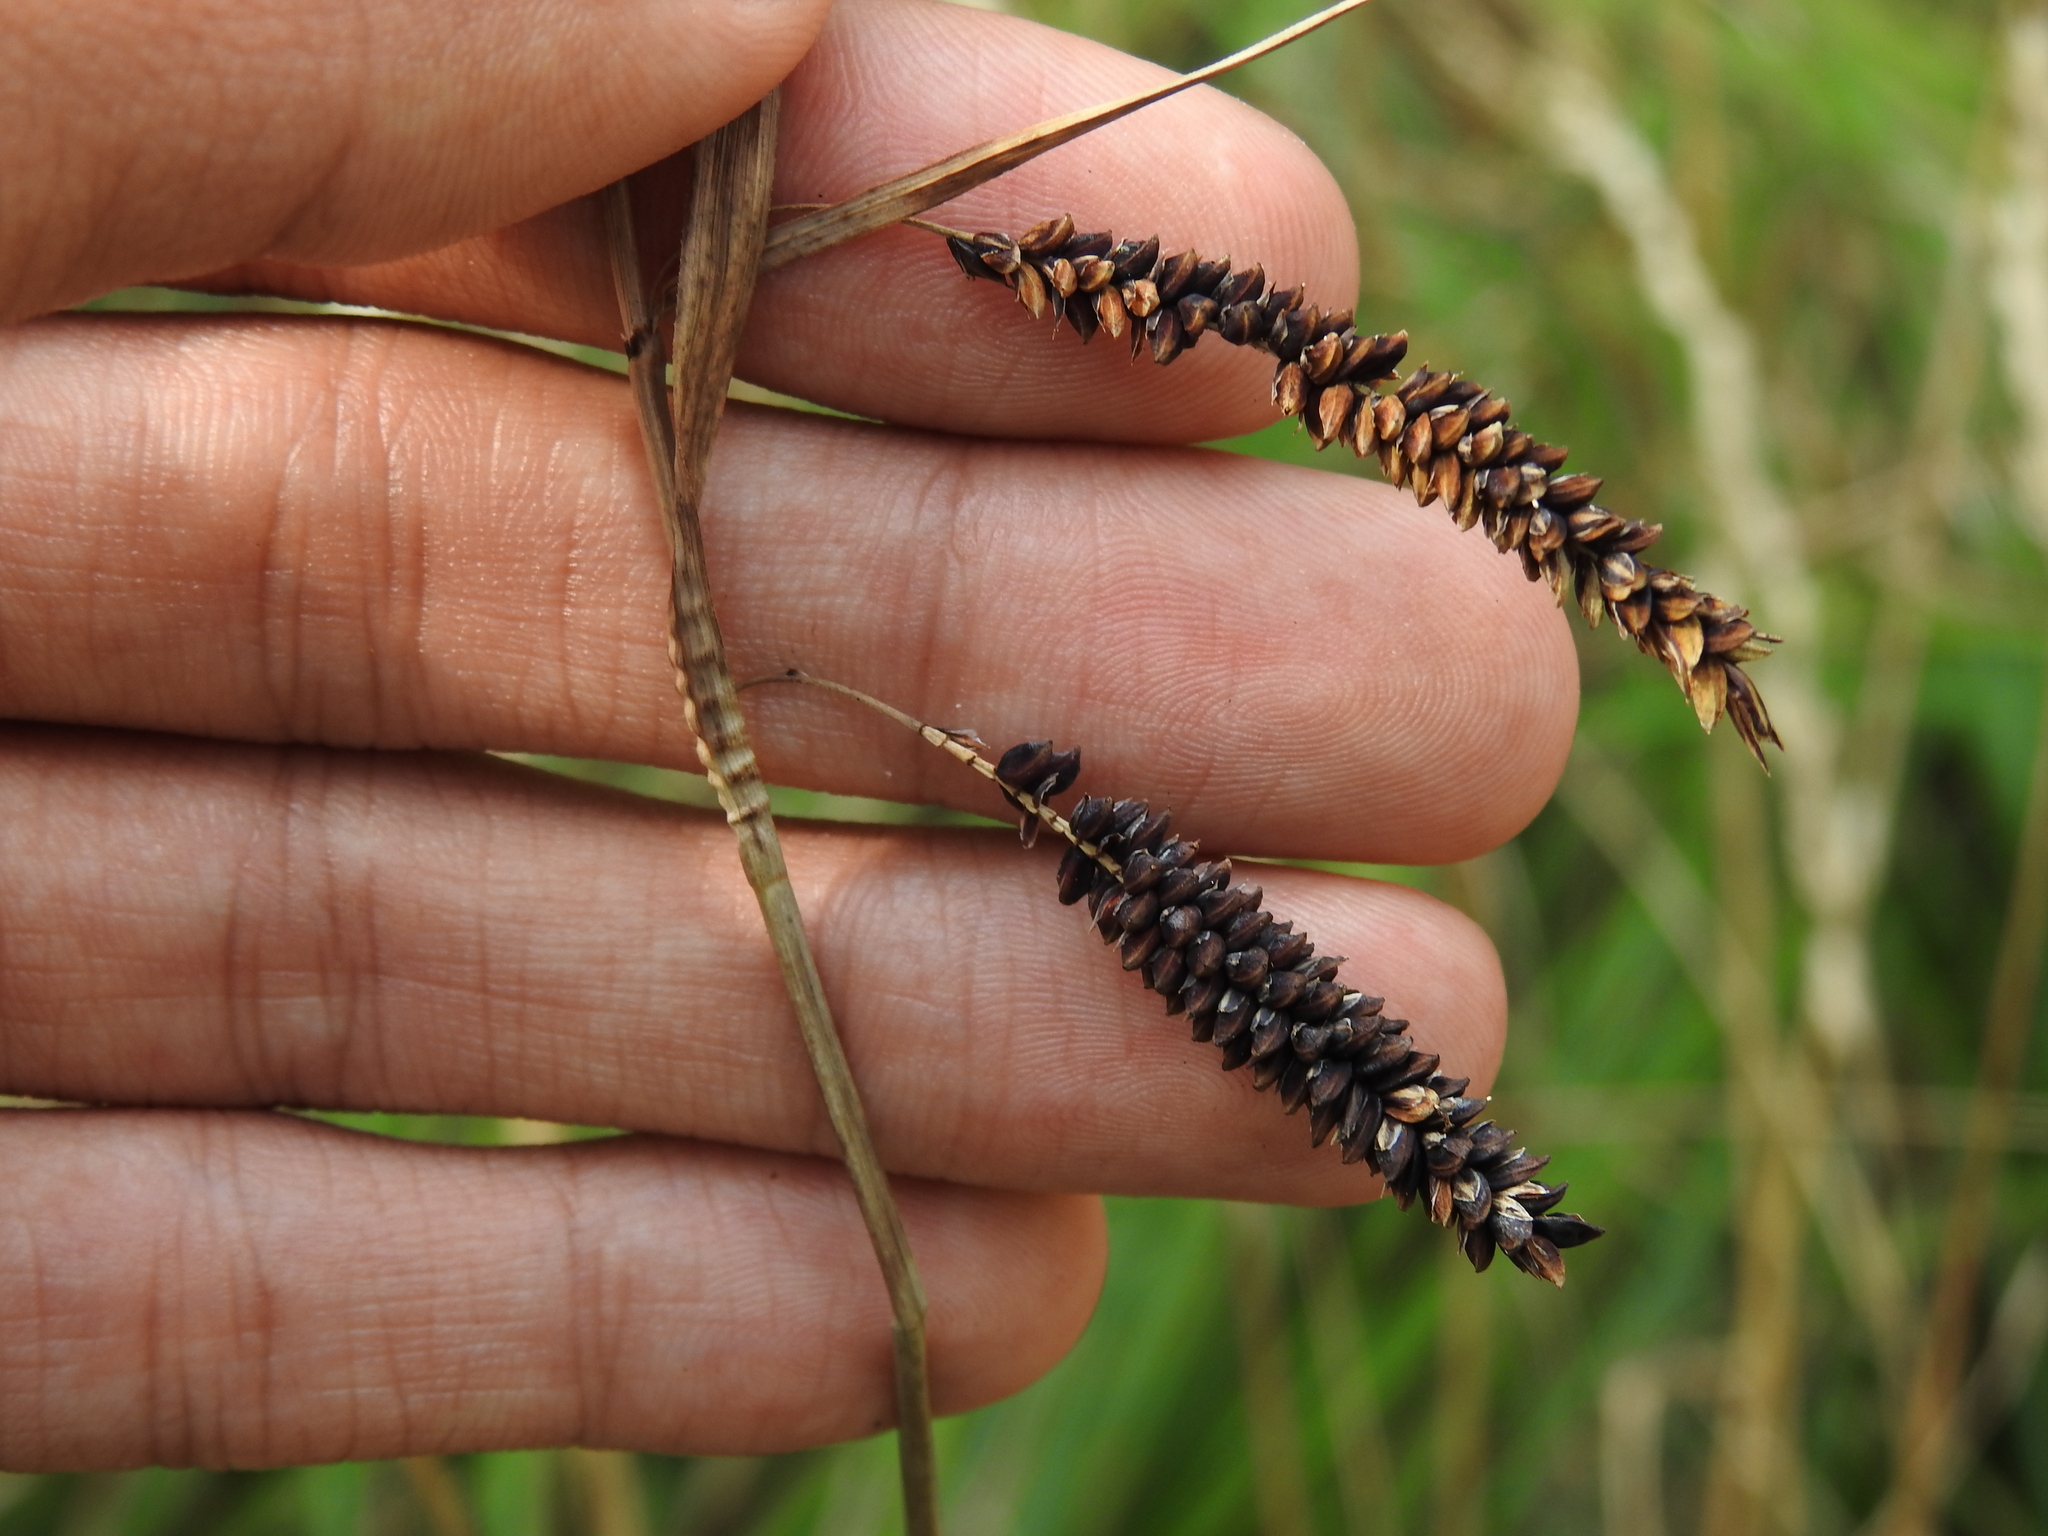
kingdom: Plantae
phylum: Tracheophyta
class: Liliopsida
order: Poales
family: Cyperaceae
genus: Carex
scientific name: Carex flacca
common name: Glaucous sedge
